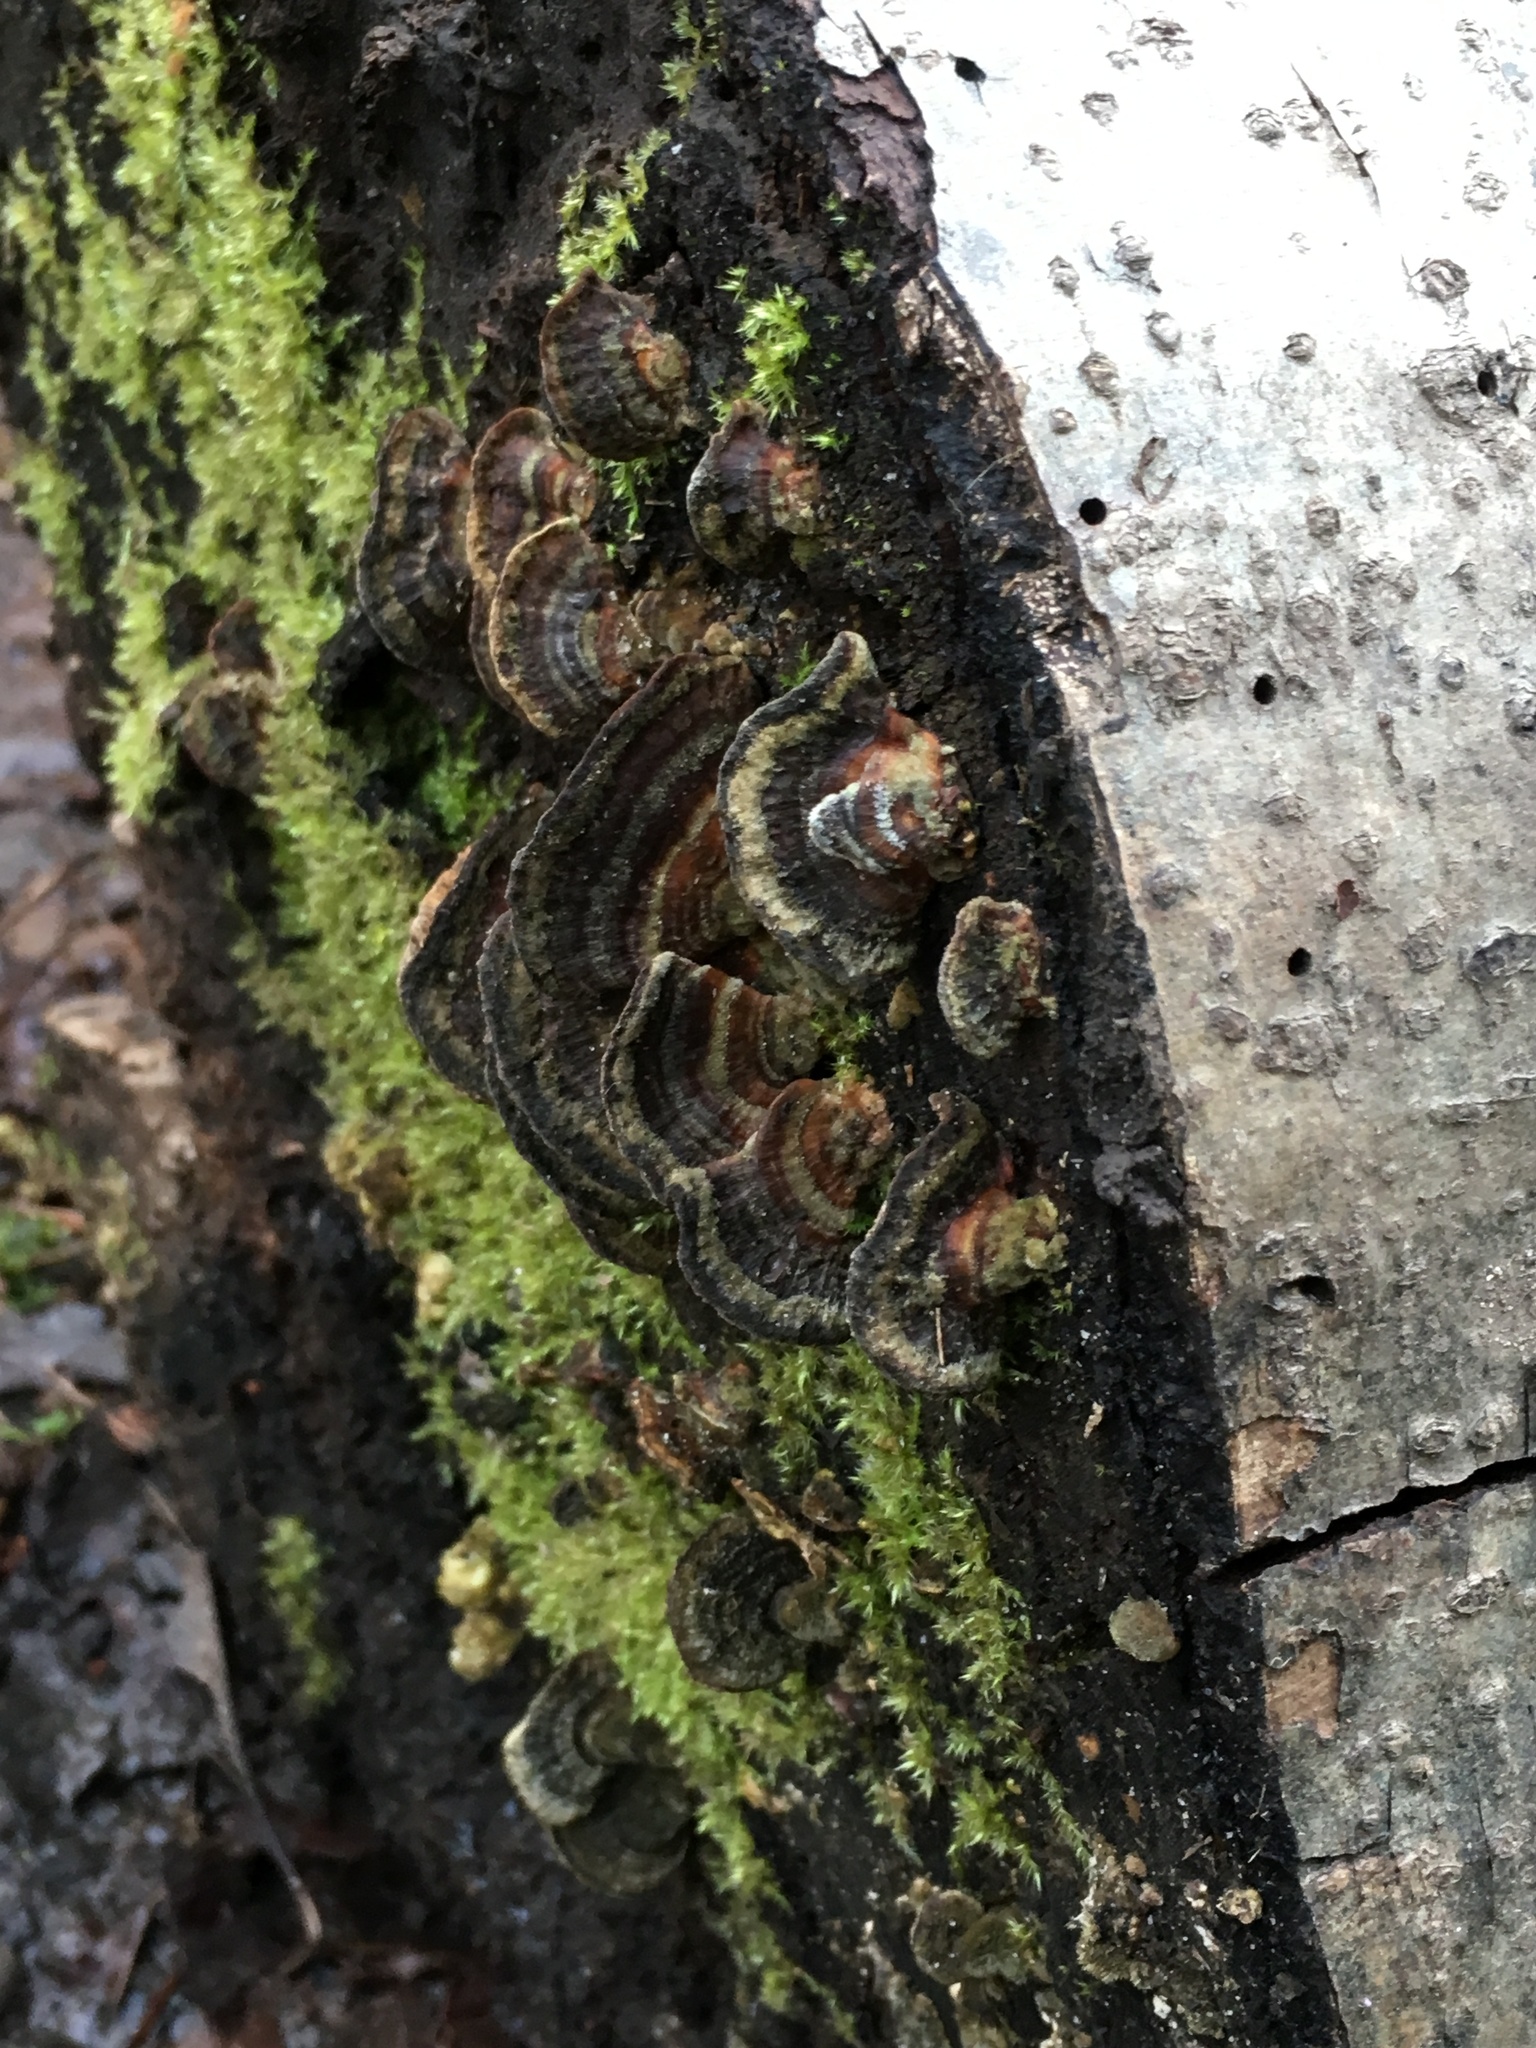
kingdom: Fungi
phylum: Basidiomycota
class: Agaricomycetes
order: Polyporales
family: Polyporaceae
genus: Trametes
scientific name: Trametes versicolor
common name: Turkeytail
